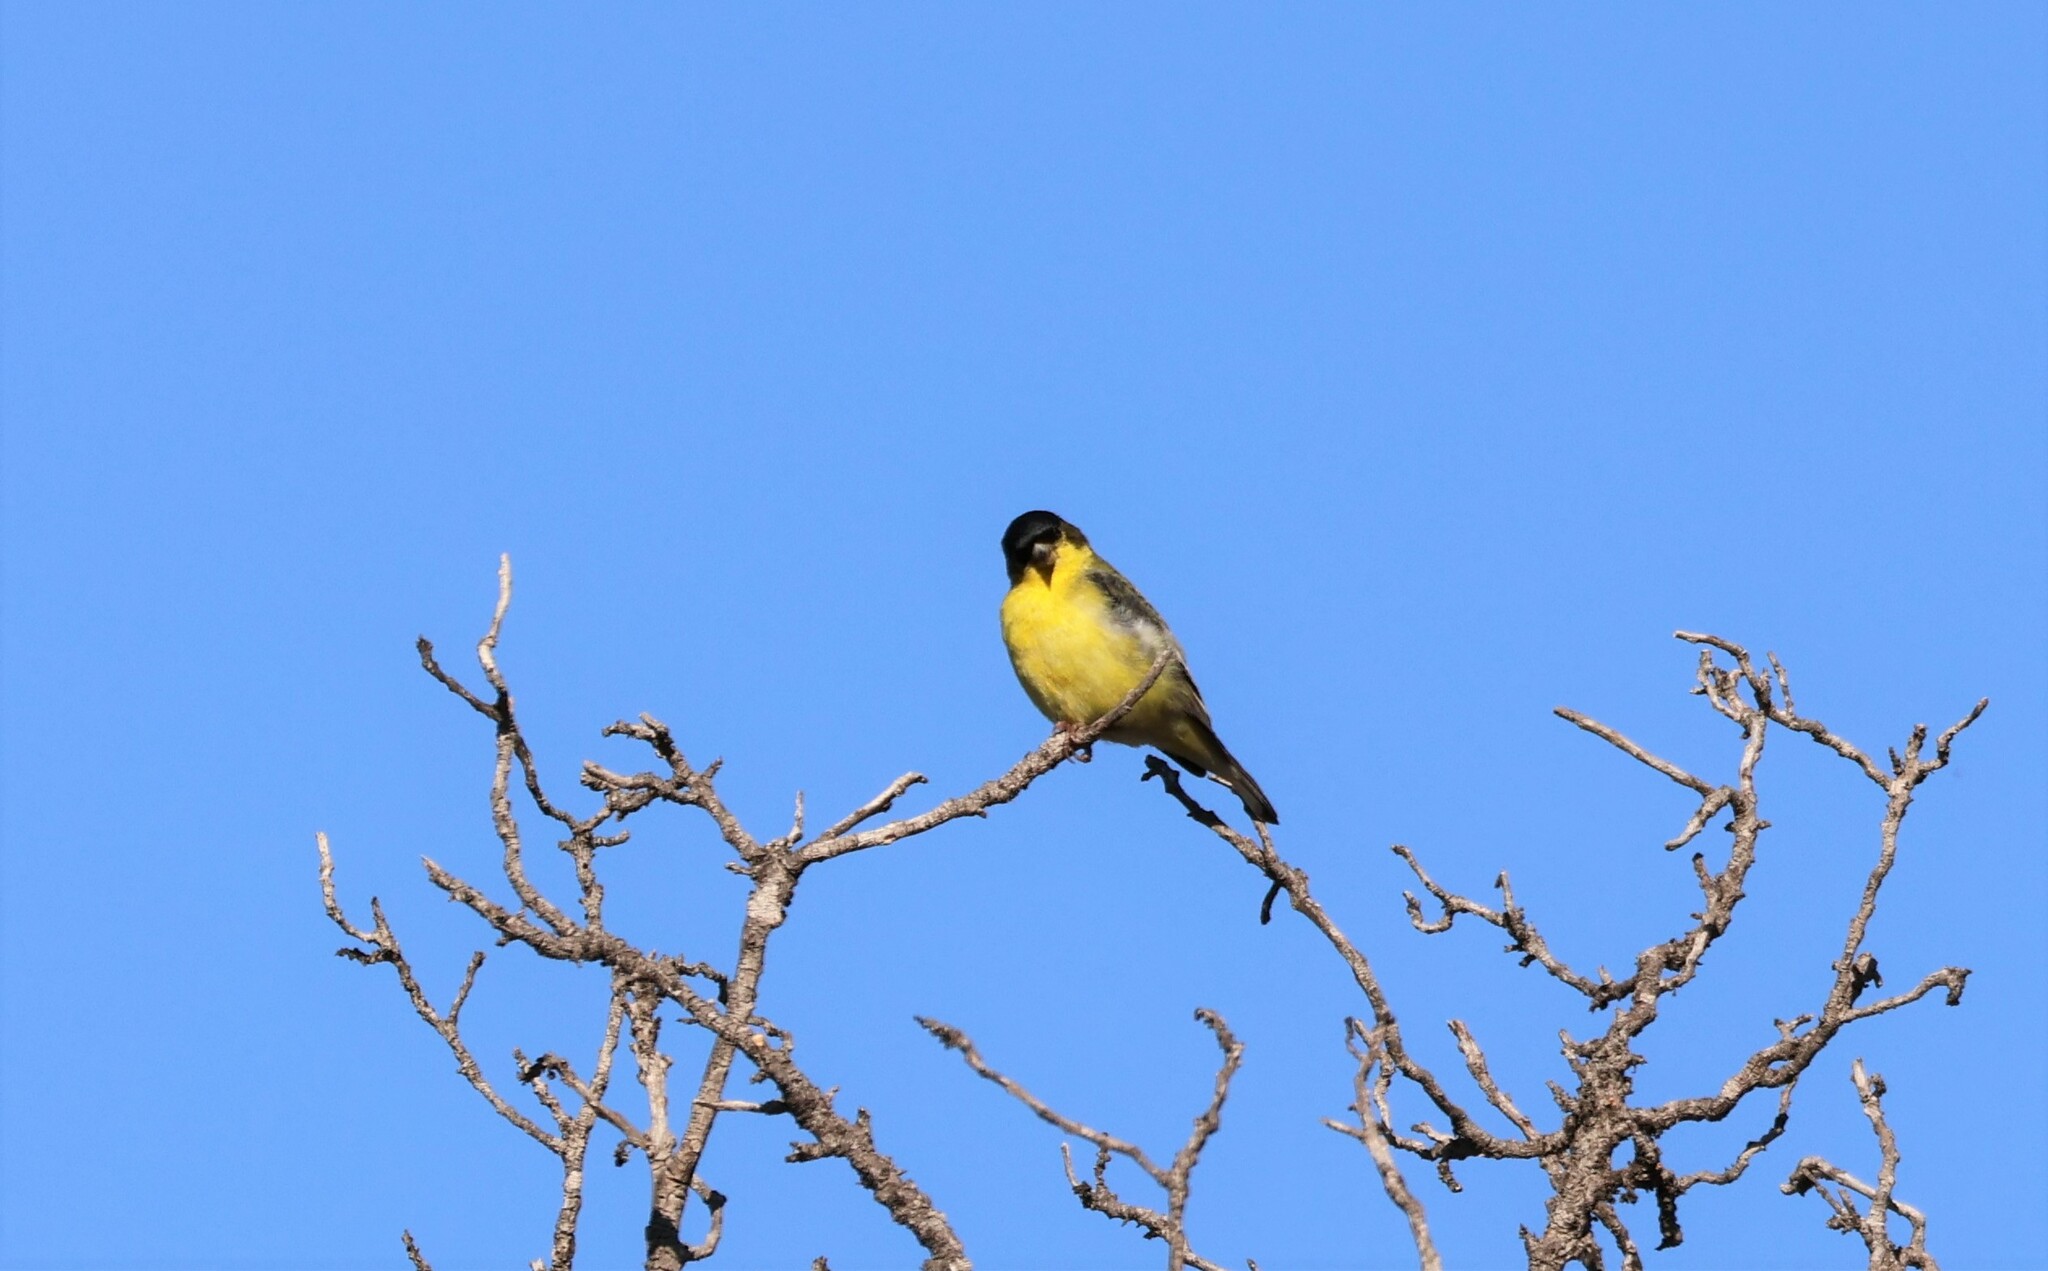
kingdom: Animalia
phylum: Chordata
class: Aves
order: Passeriformes
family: Fringillidae
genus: Spinus
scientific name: Spinus psaltria
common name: Lesser goldfinch
